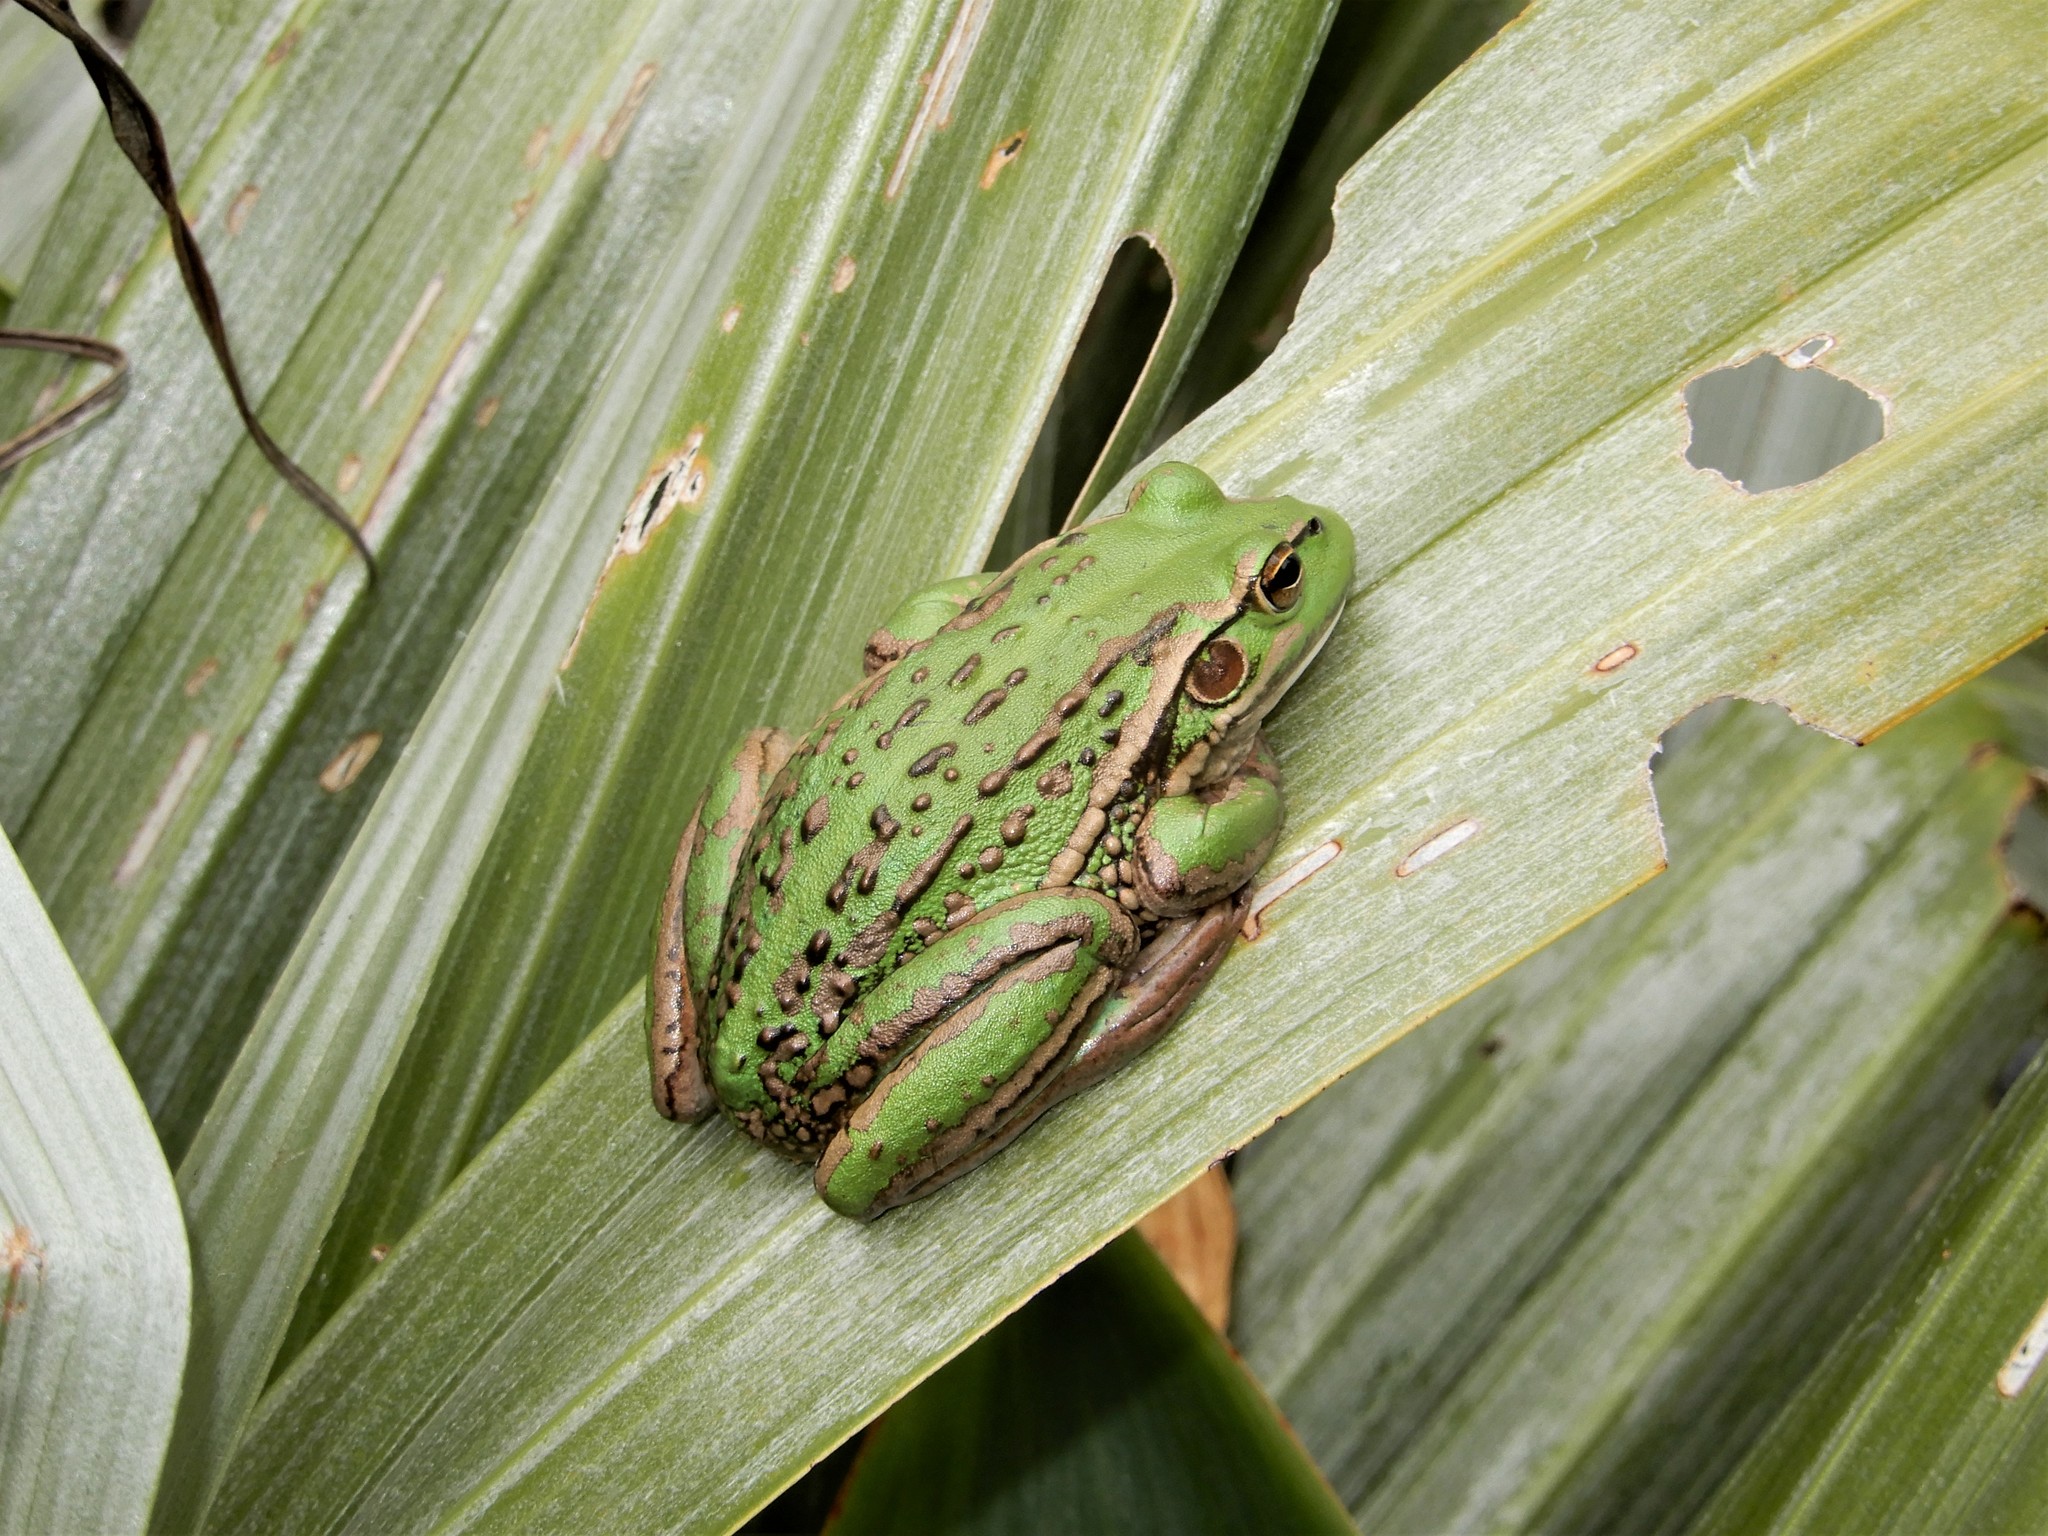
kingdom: Animalia
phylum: Chordata
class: Amphibia
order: Anura
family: Pelodryadidae
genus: Ranoidea
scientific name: Ranoidea raniformis
